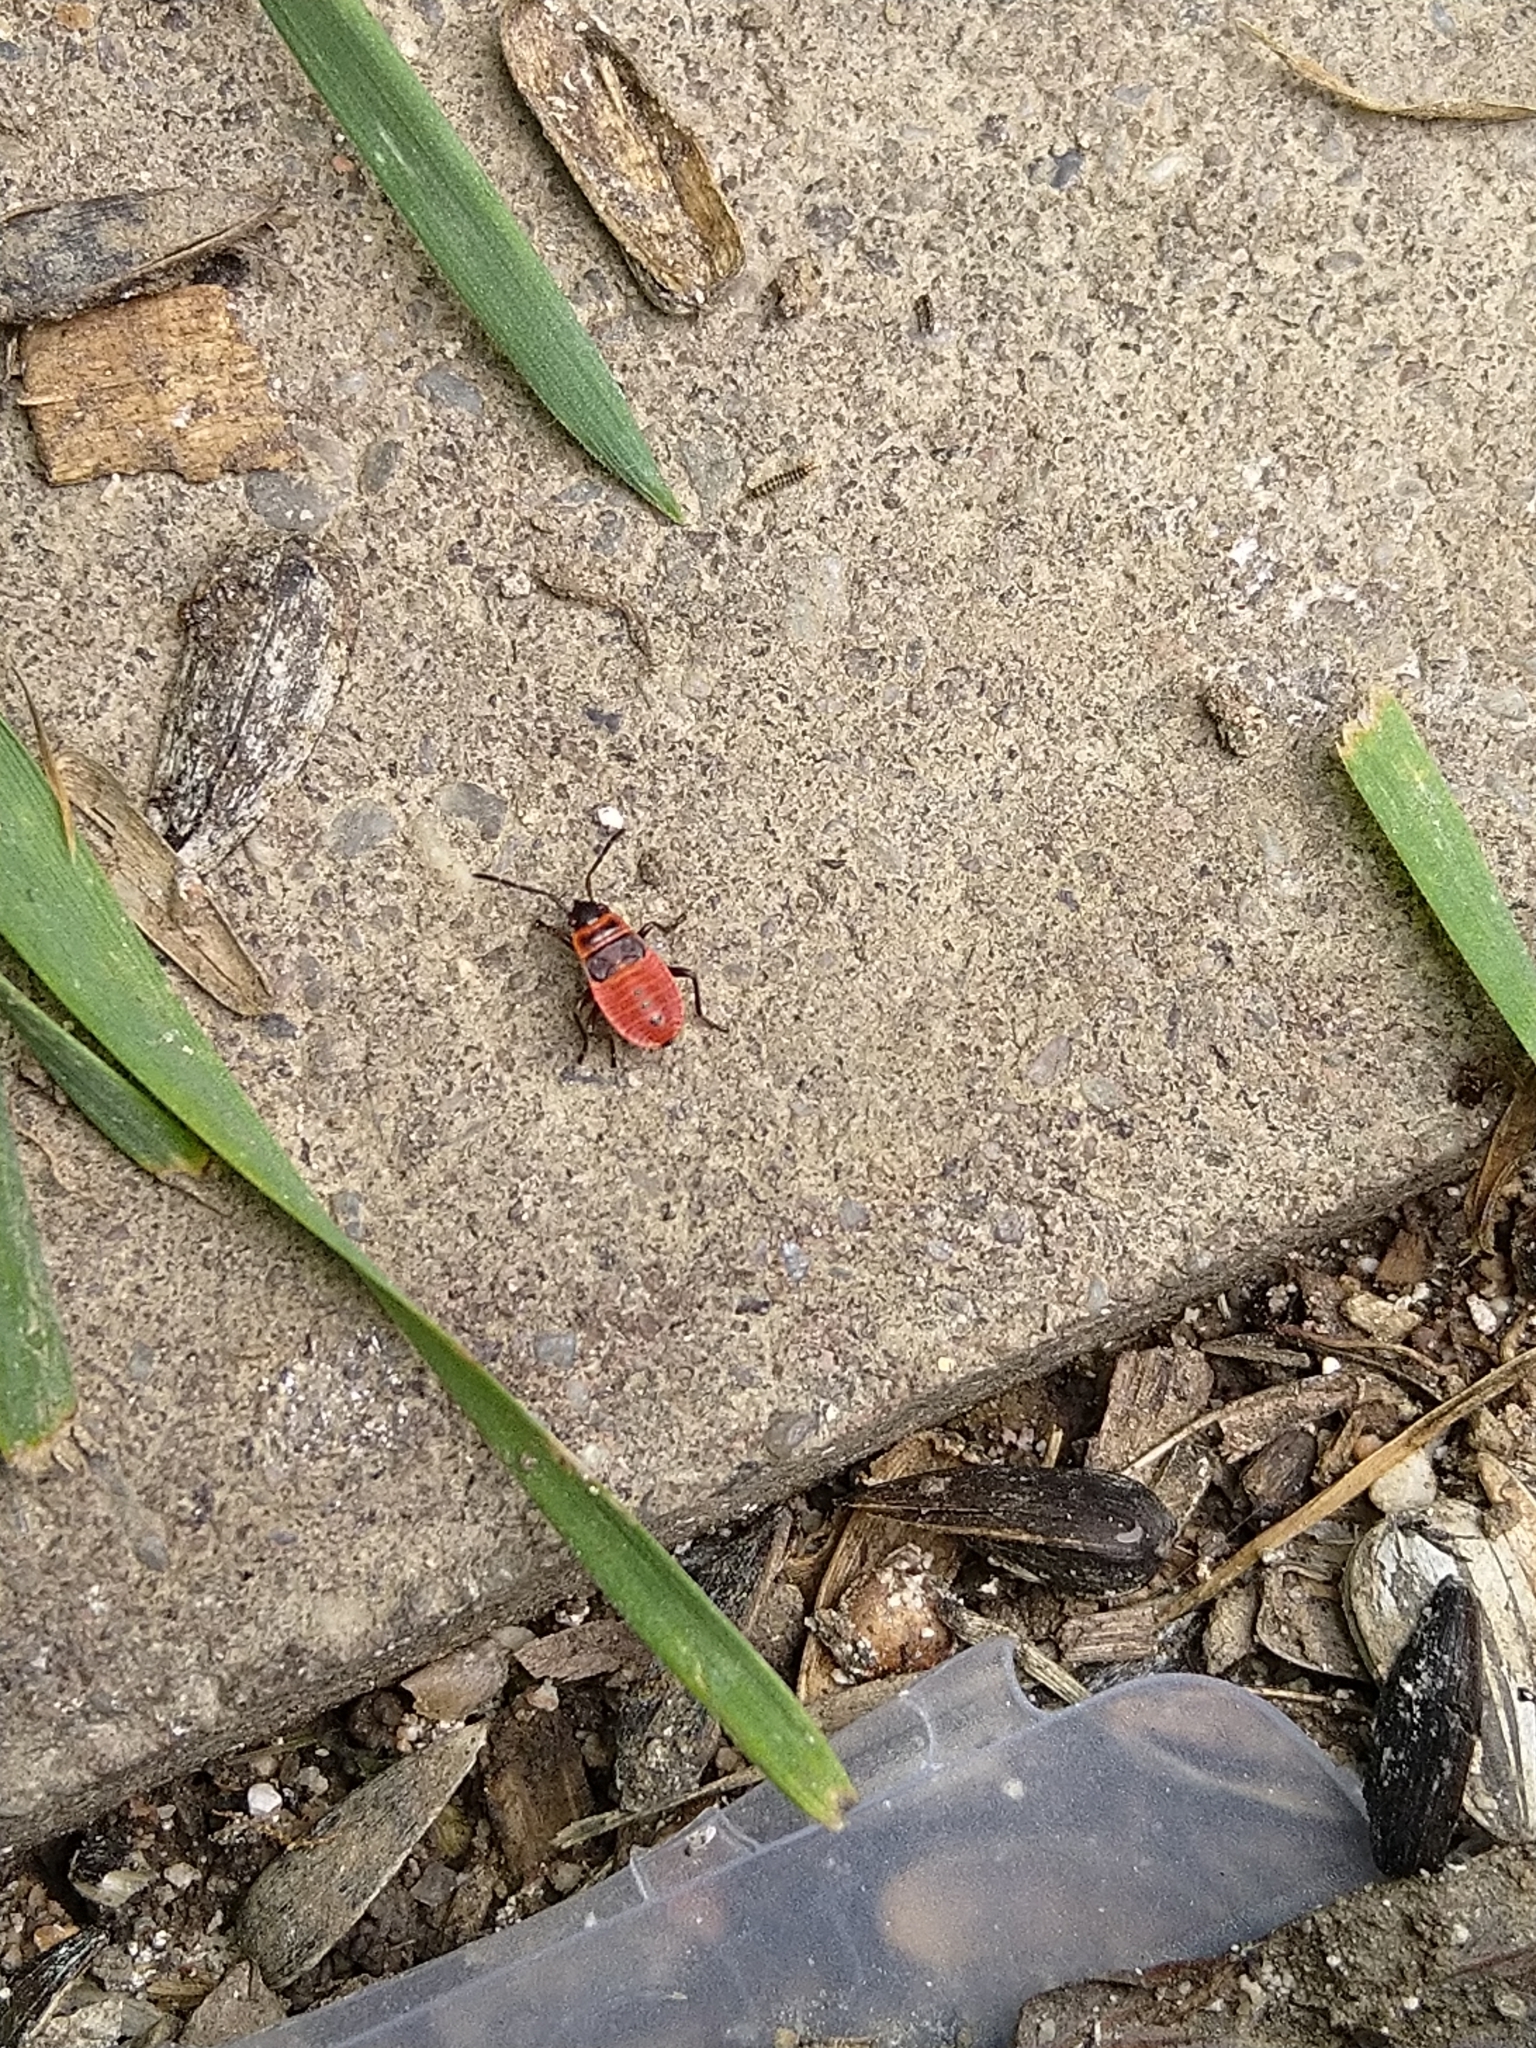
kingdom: Animalia
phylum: Arthropoda
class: Insecta
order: Hemiptera
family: Pyrrhocoridae
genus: Pyrrhocoris
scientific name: Pyrrhocoris apterus
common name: Firebug
